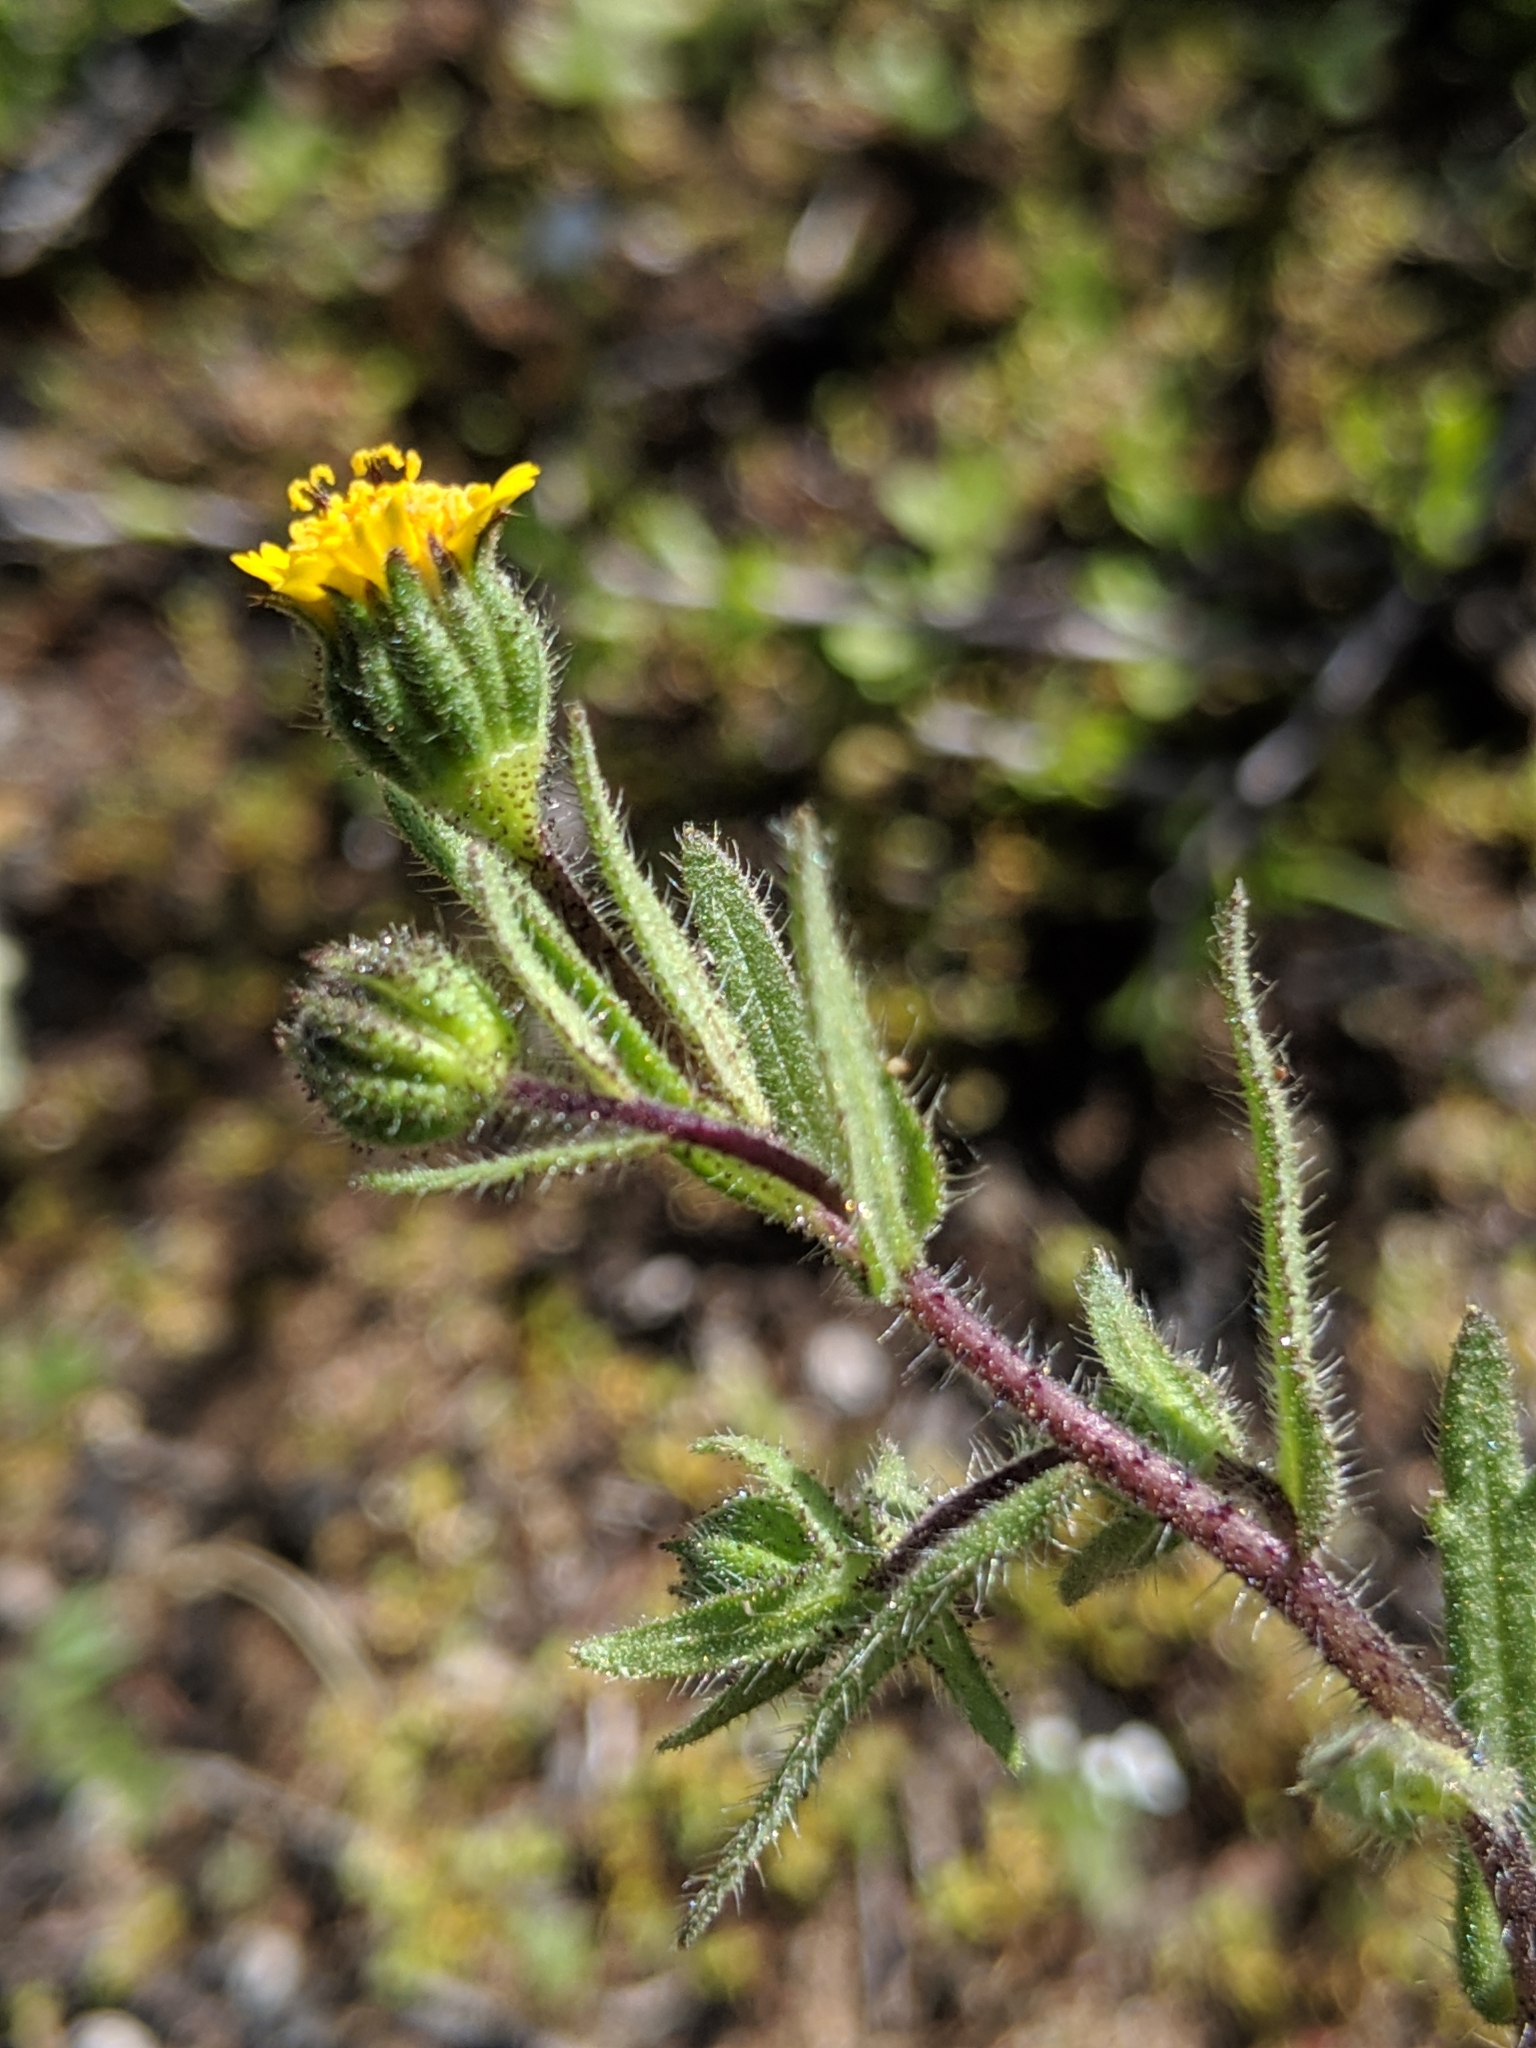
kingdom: Plantae
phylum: Tracheophyta
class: Magnoliopsida
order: Asterales
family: Asteraceae
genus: Layia
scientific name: Layia hieracioides
